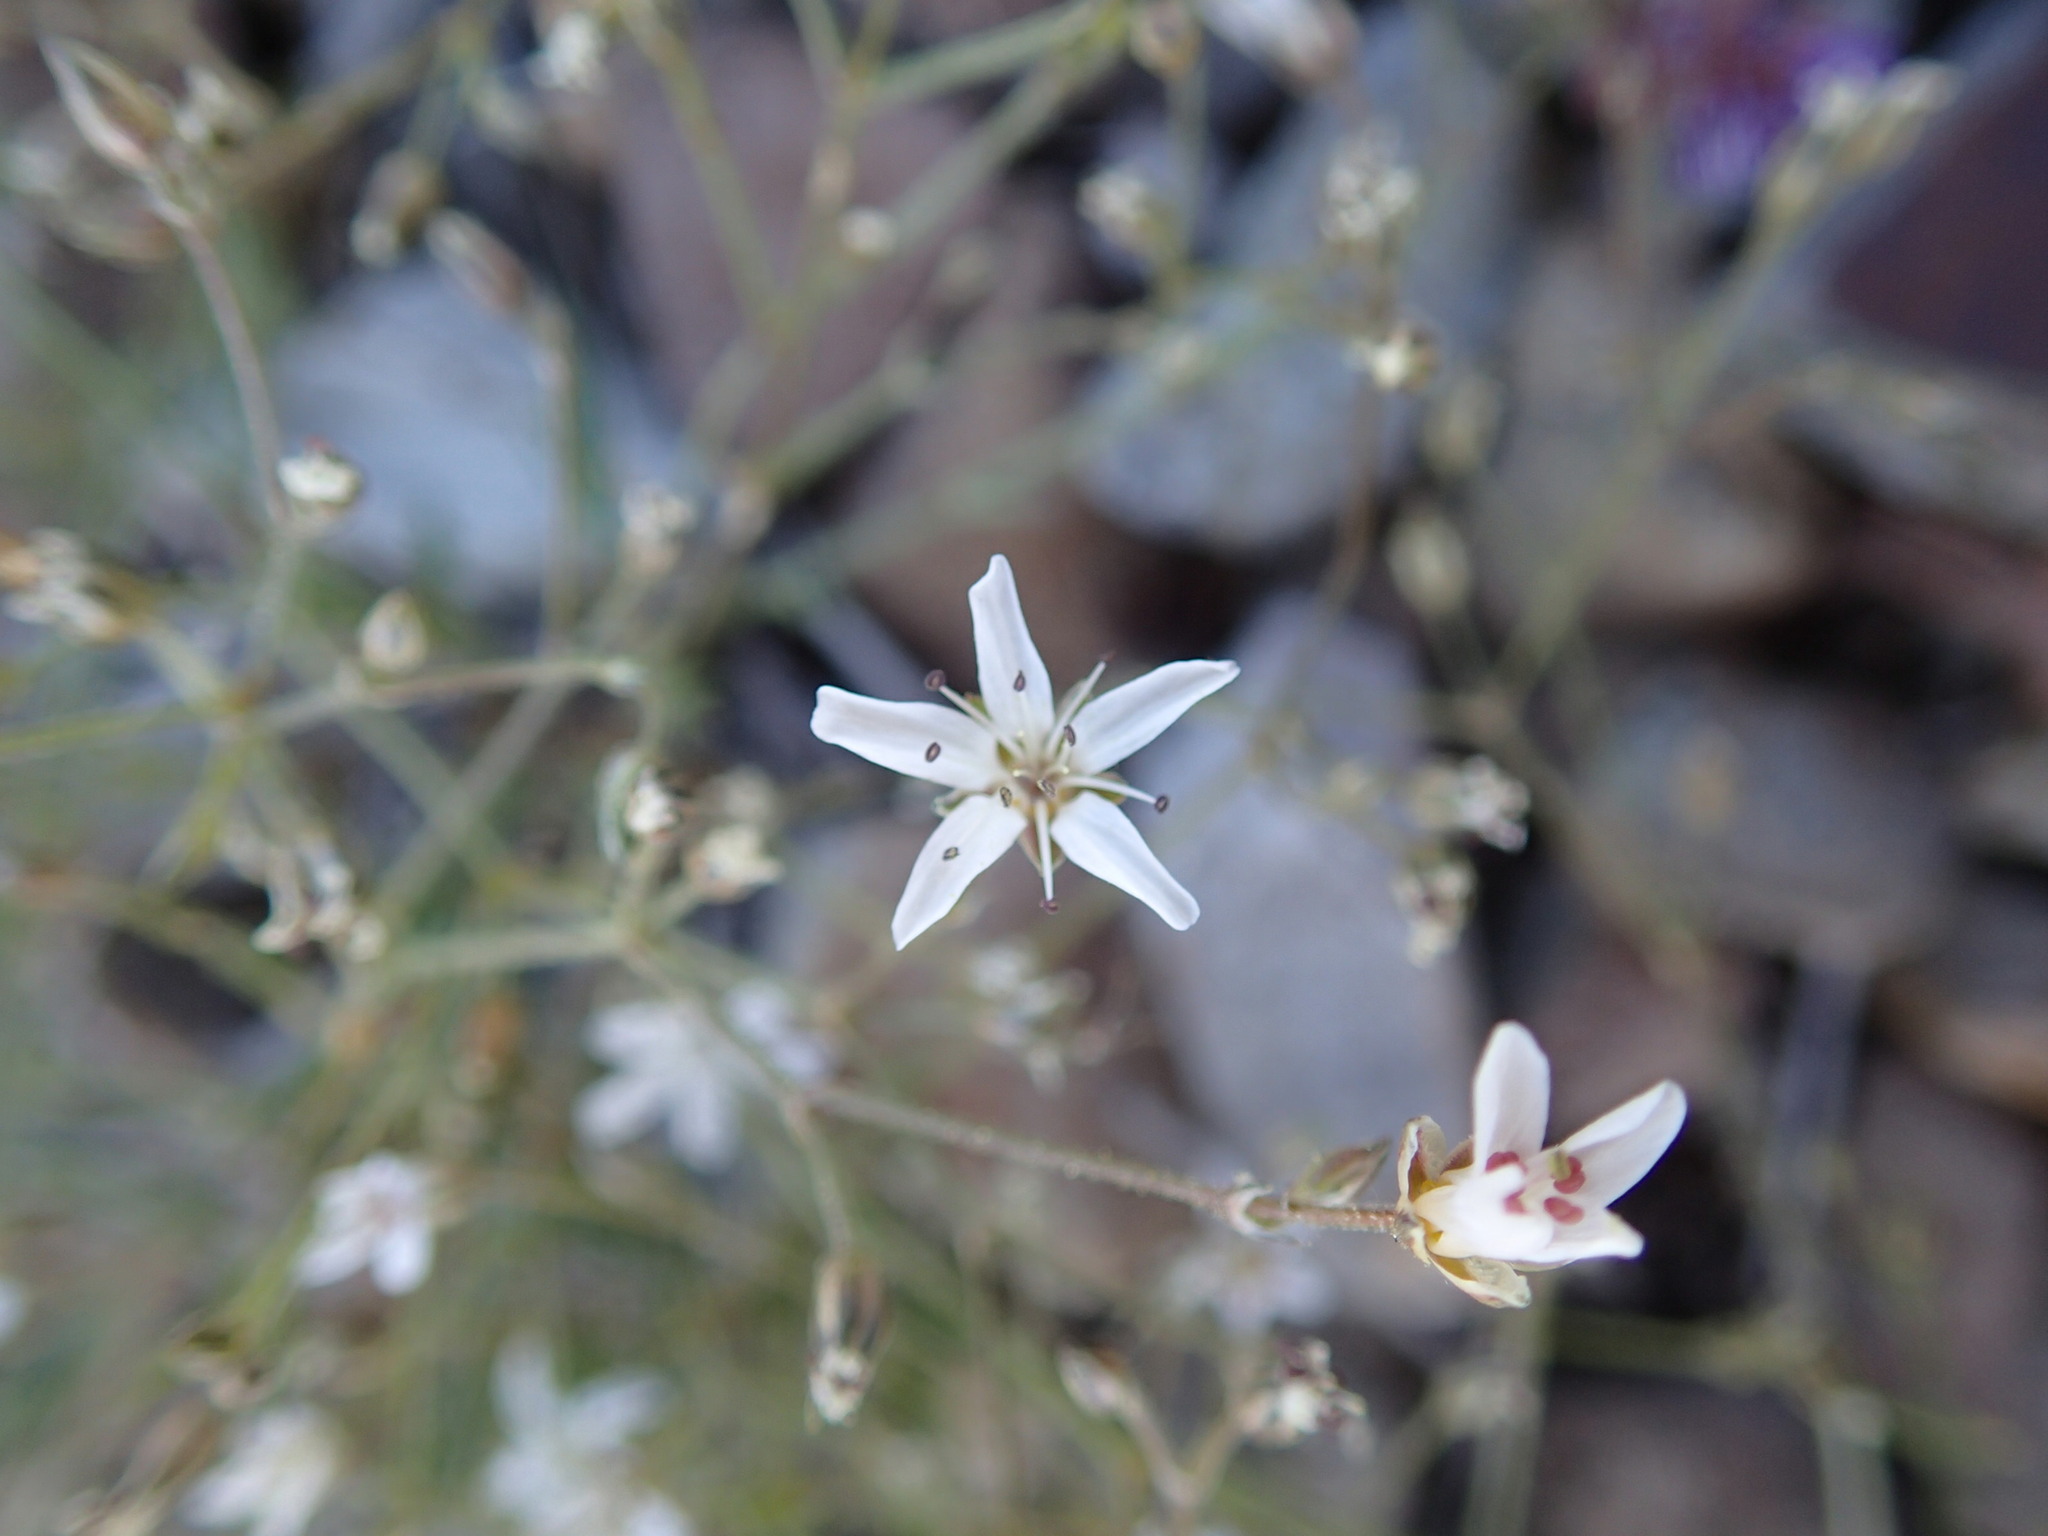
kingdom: Plantae
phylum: Tracheophyta
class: Magnoliopsida
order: Caryophyllales
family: Caryophyllaceae
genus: Eremogone
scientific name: Eremogone aculeata
